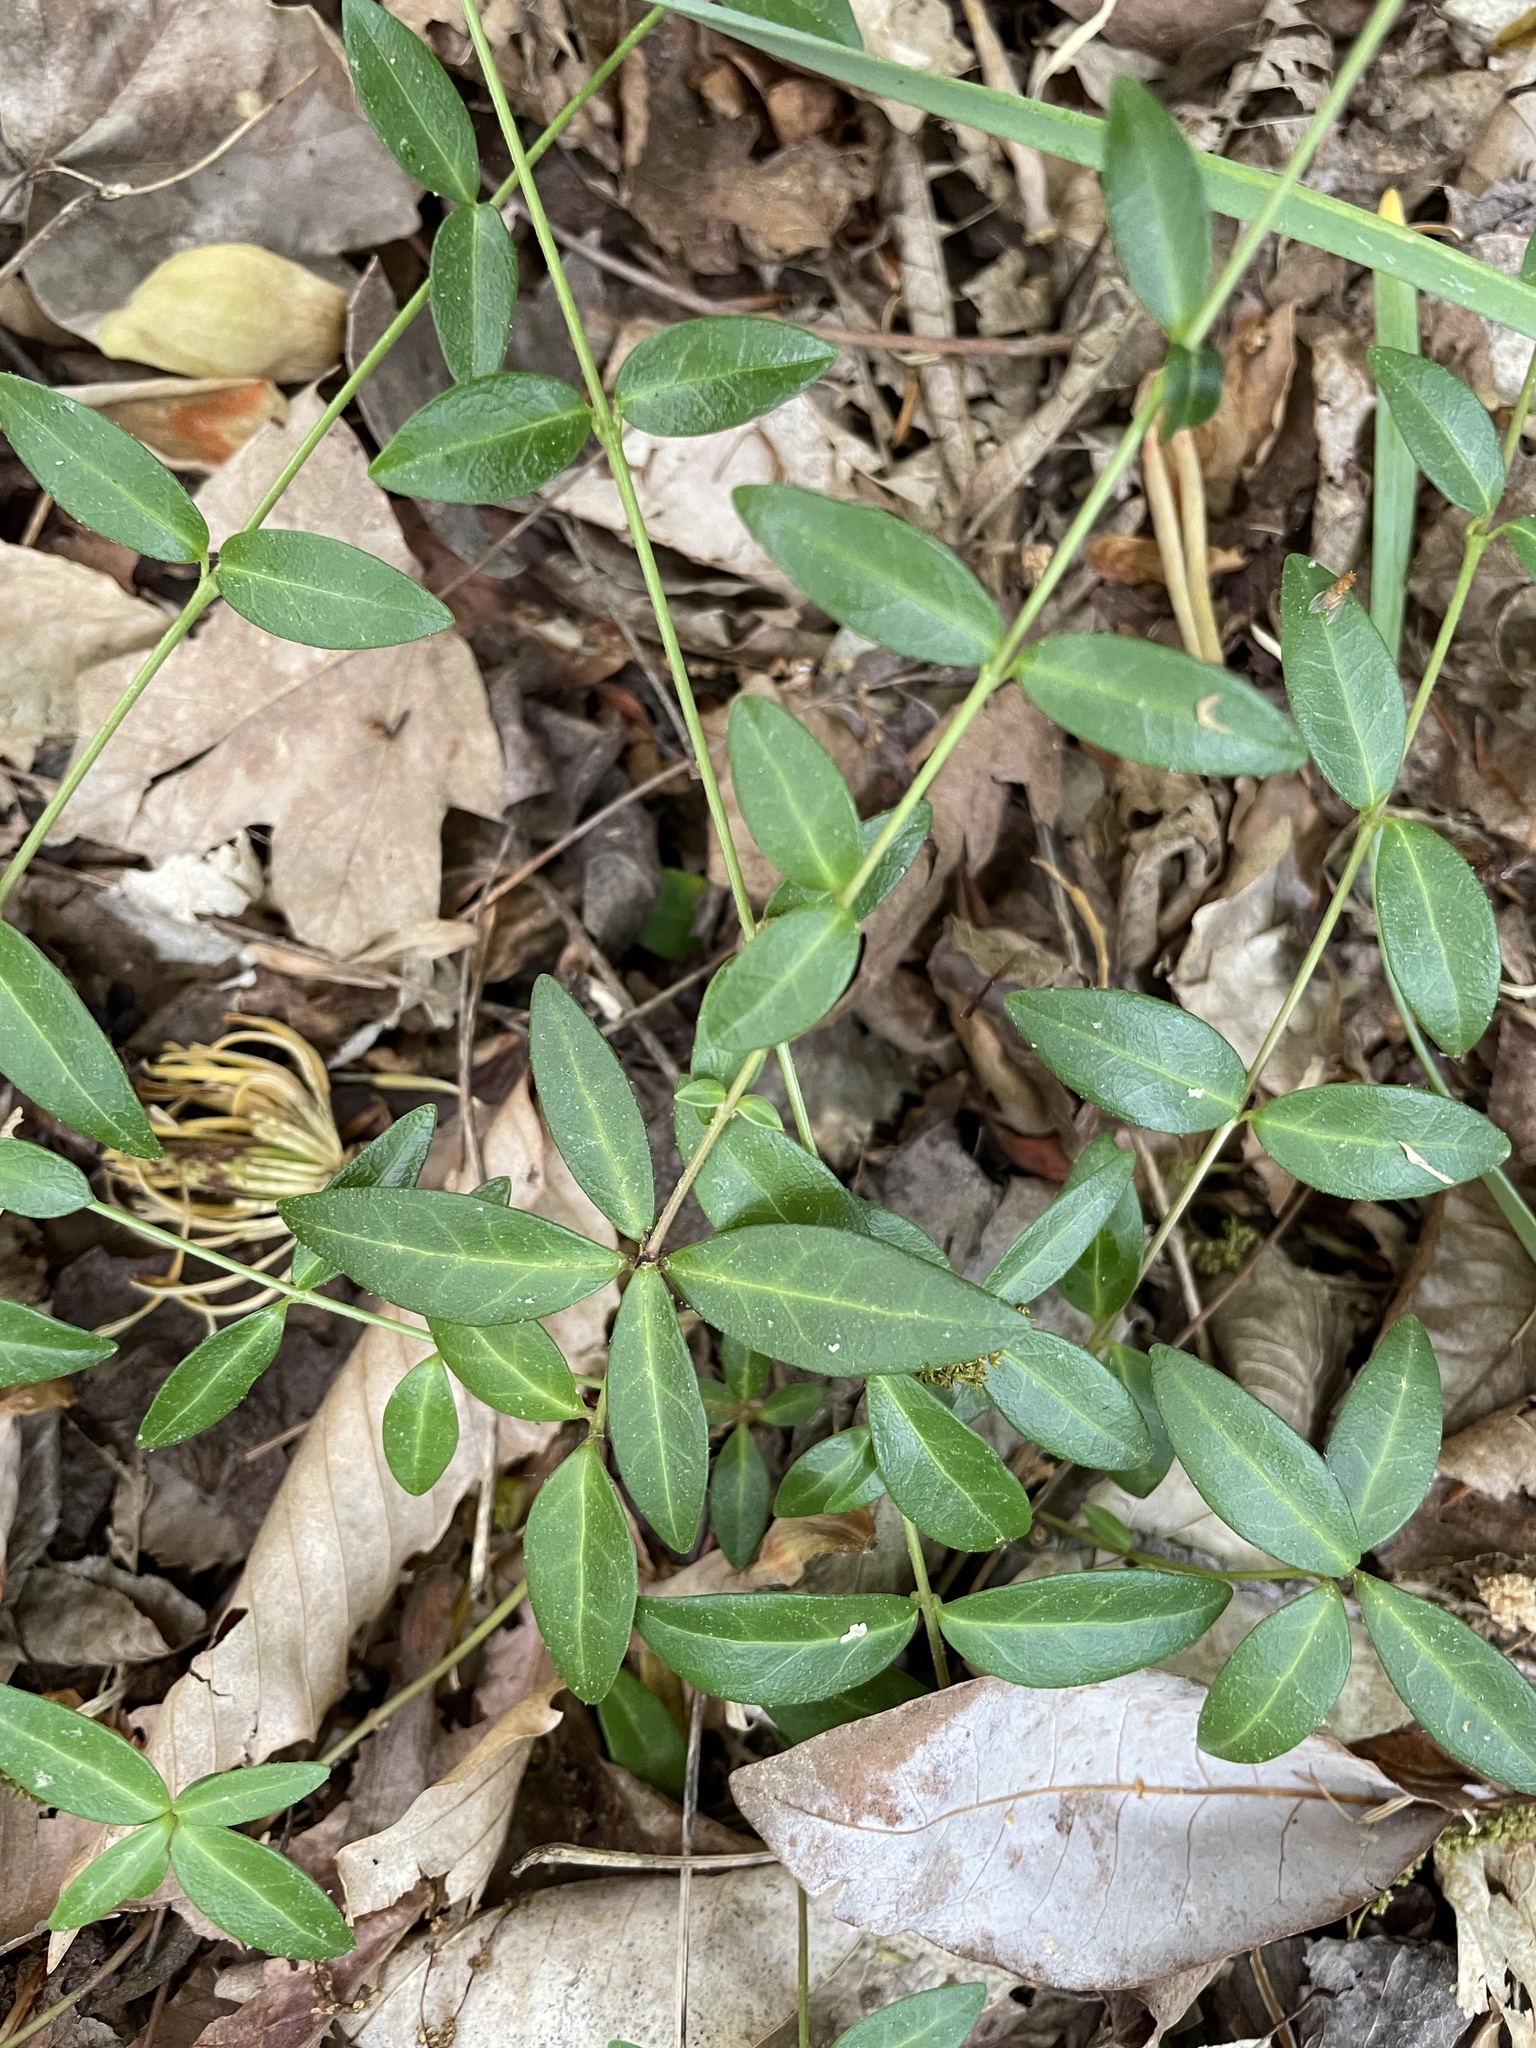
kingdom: Plantae
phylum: Tracheophyta
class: Magnoliopsida
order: Gentianales
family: Apocynaceae
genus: Vinca
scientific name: Vinca minor
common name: Lesser periwinkle
